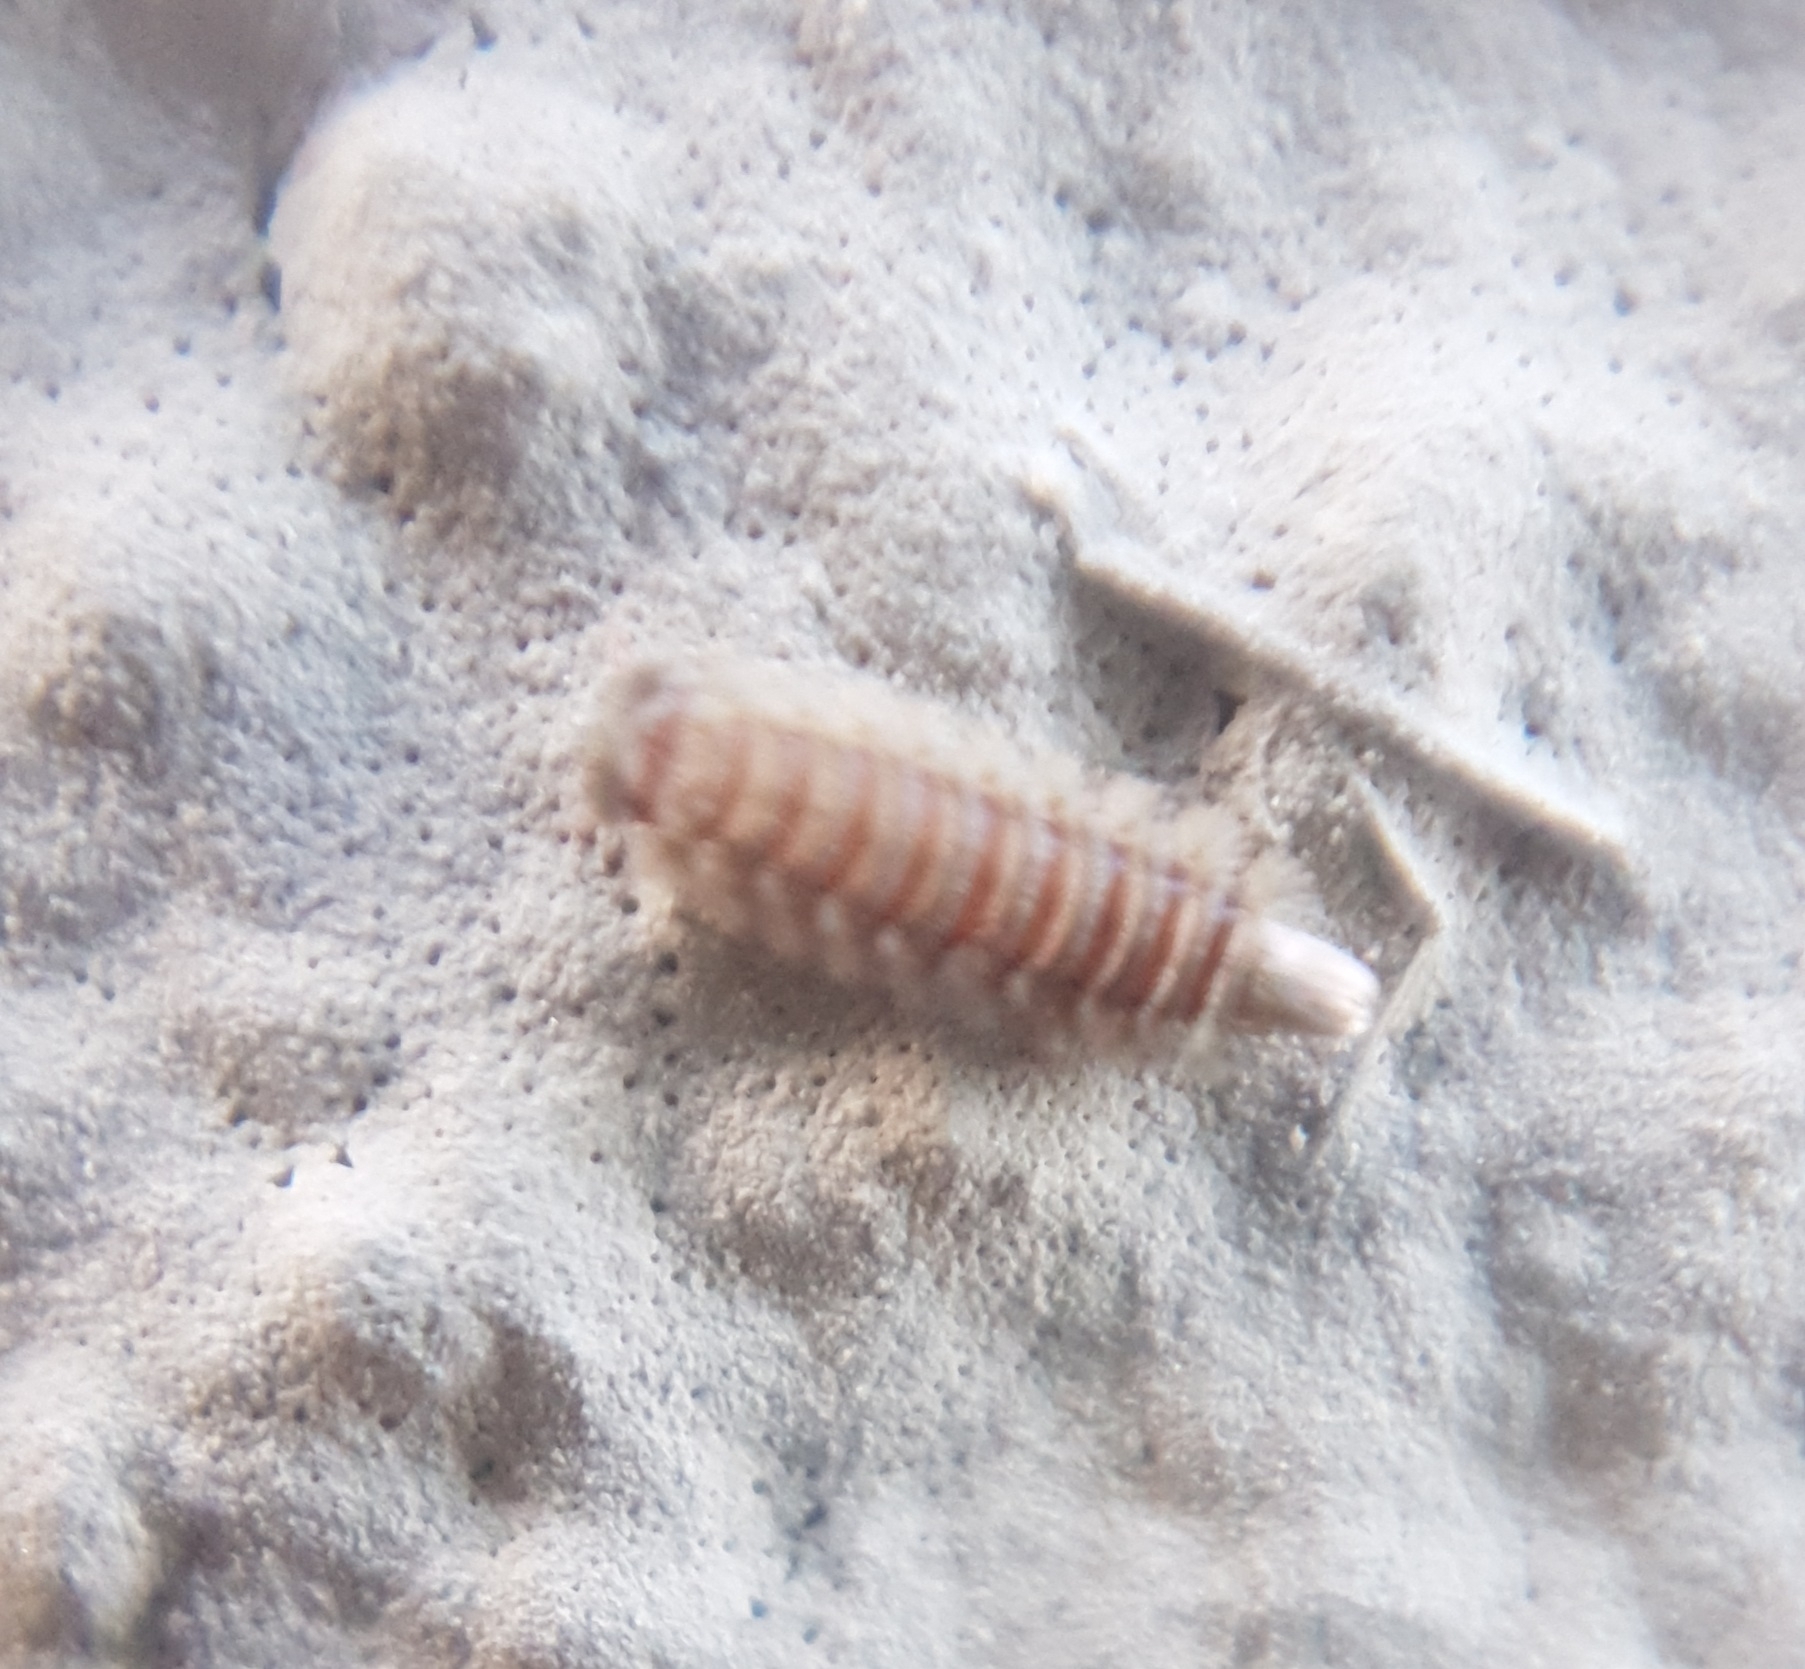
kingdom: Animalia
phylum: Arthropoda
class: Diplopoda
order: Polyxenida
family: Polyxenidae
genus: Polyxenus
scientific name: Polyxenus lagurus
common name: Bristly millipede
